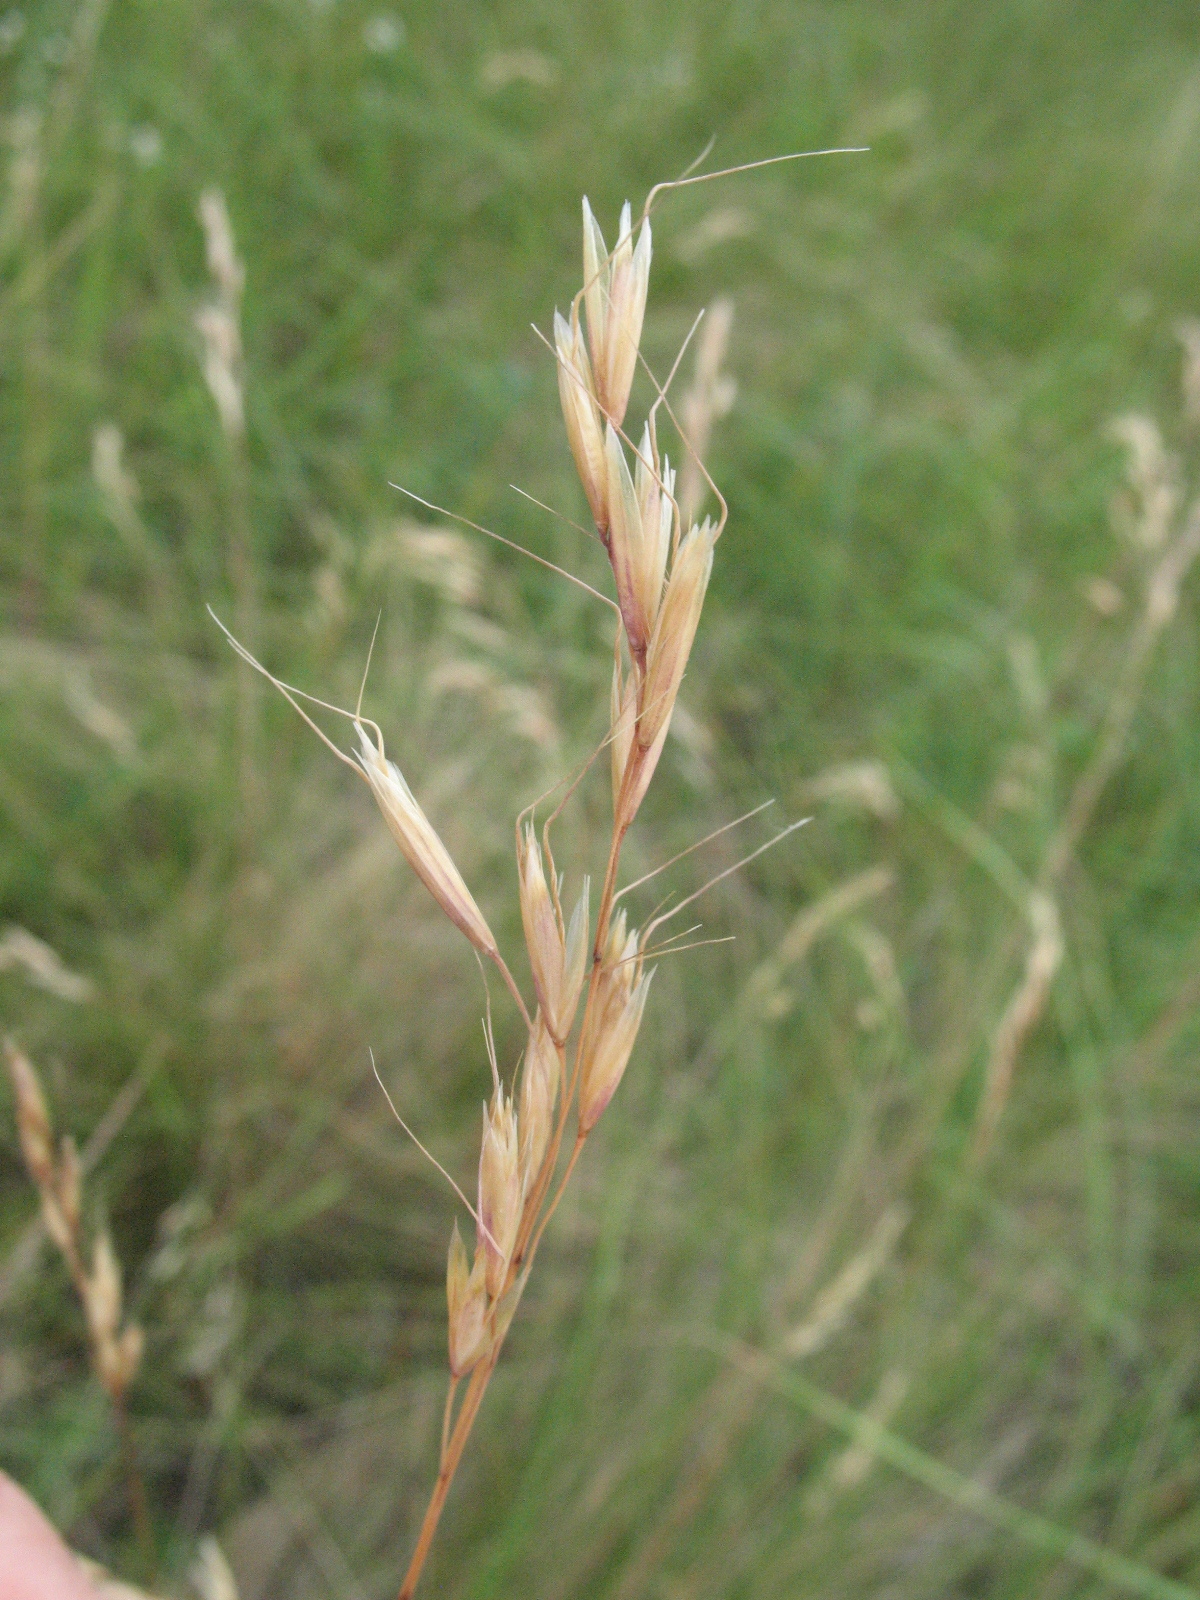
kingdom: Plantae
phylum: Tracheophyta
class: Liliopsida
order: Poales
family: Poaceae
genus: Helictotrichon
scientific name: Helictotrichon desertorum
